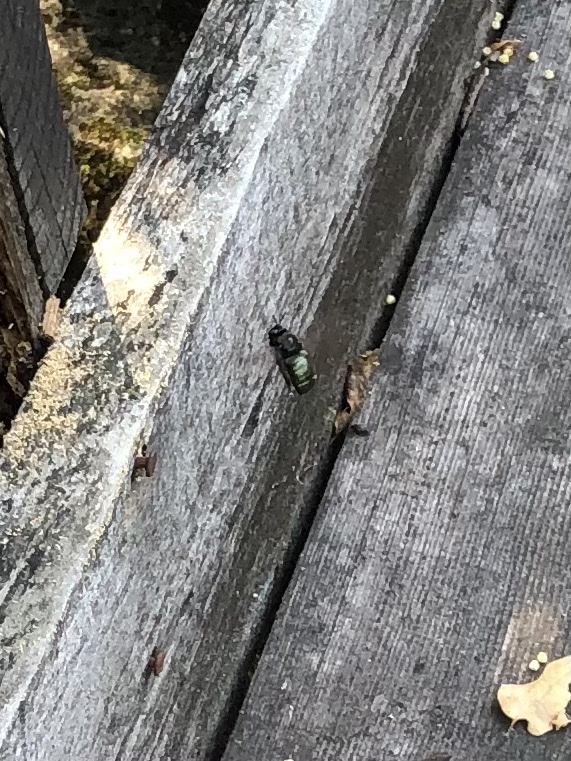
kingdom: Animalia
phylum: Arthropoda
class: Insecta
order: Hymenoptera
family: Apidae
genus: Xylocopa
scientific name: Xylocopa californica
